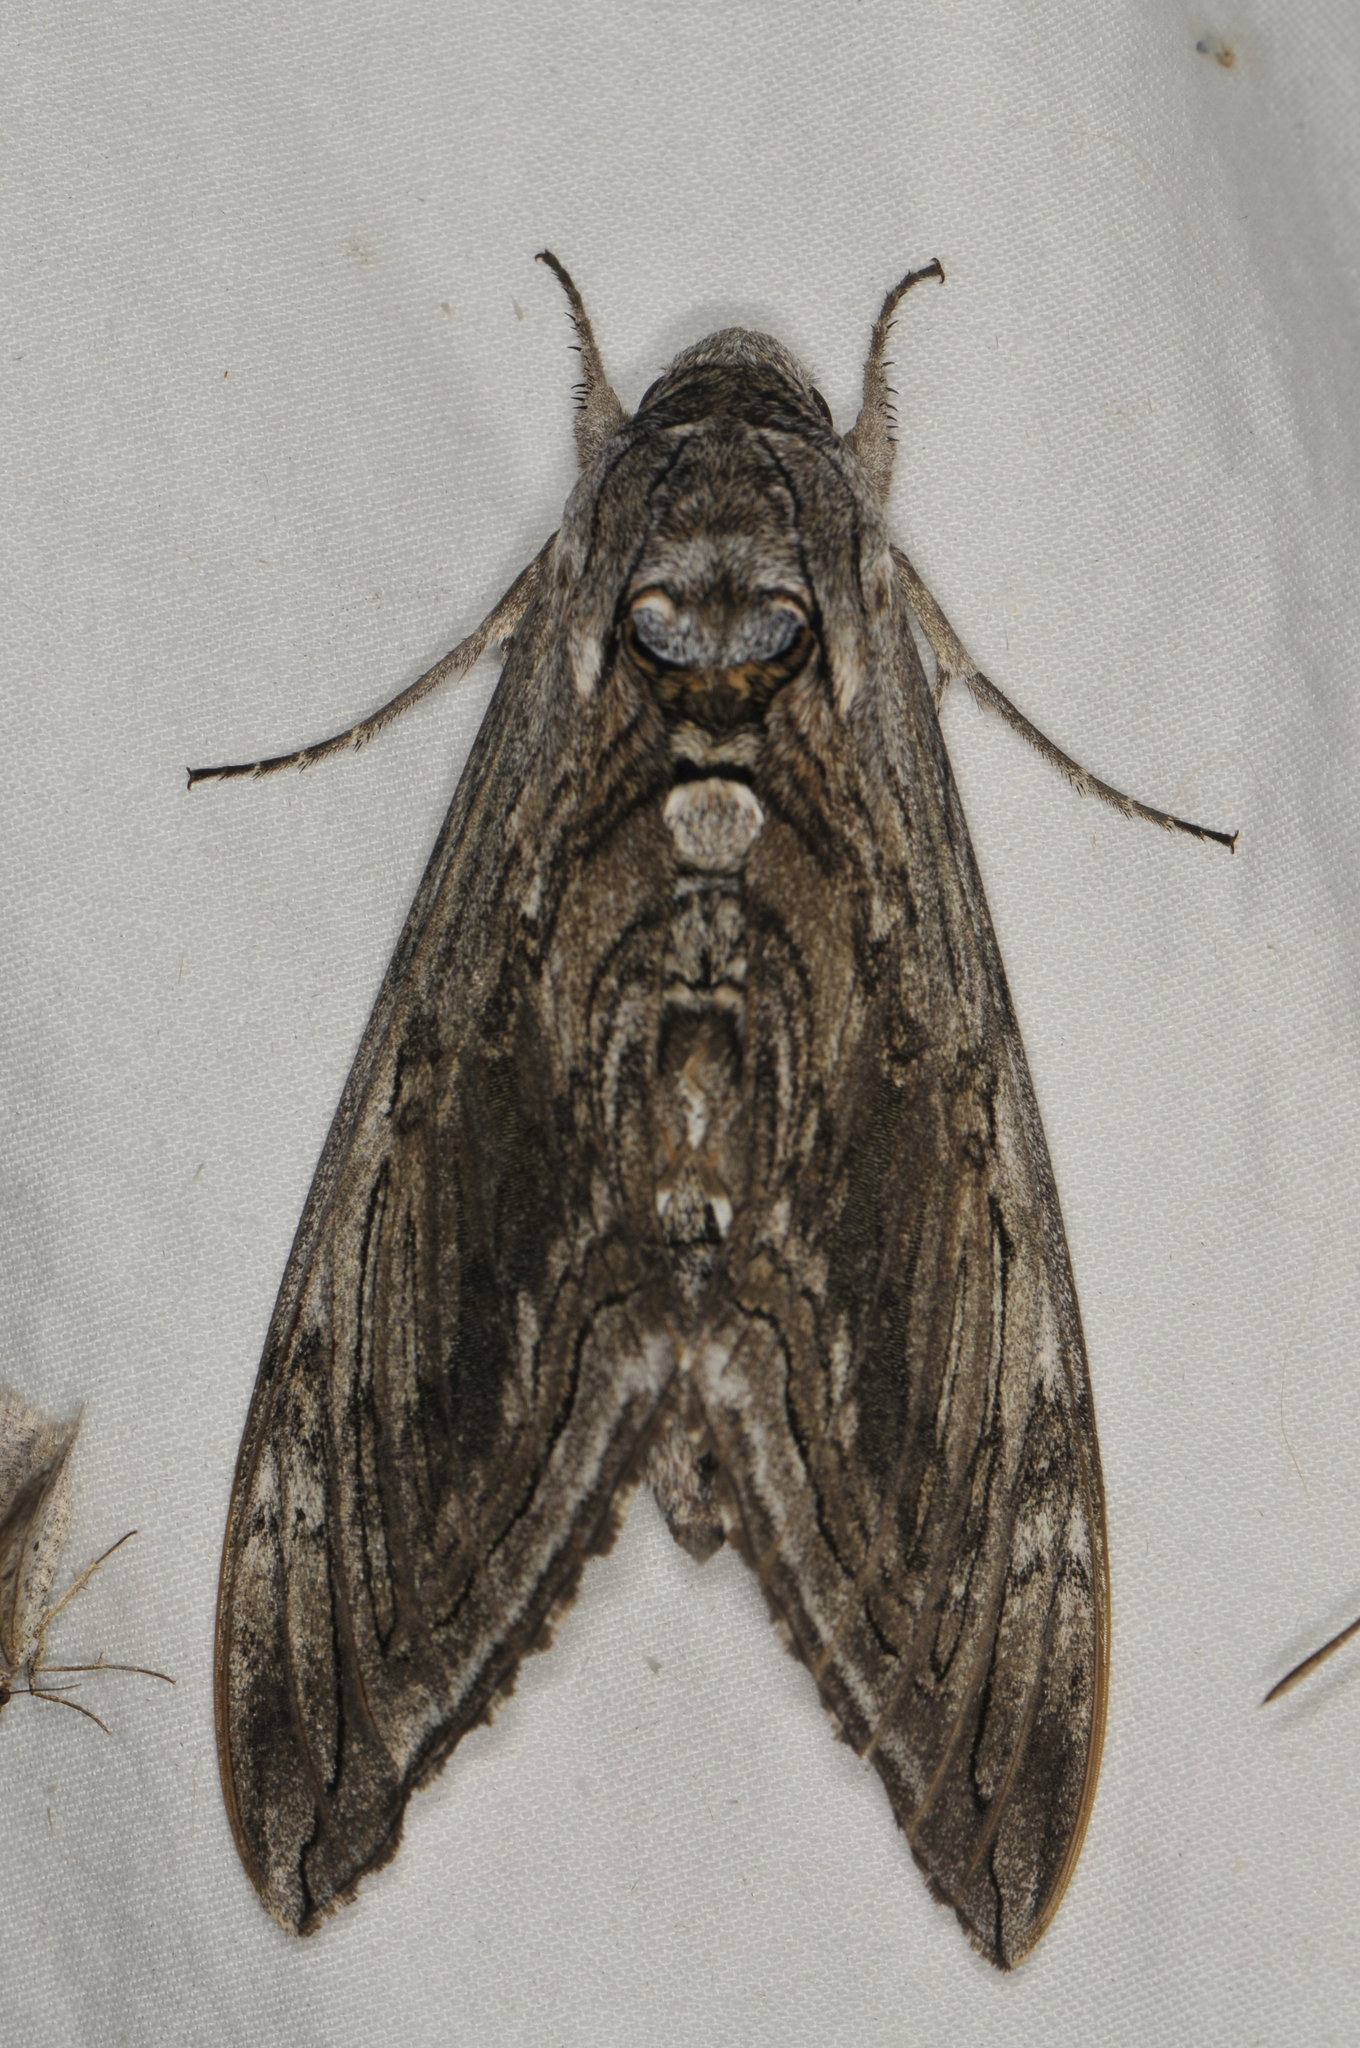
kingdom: Animalia
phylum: Arthropoda
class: Insecta
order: Lepidoptera
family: Sphingidae
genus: Manduca
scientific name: Manduca quinquemaculatus
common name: Five-spotted hawk-moth
